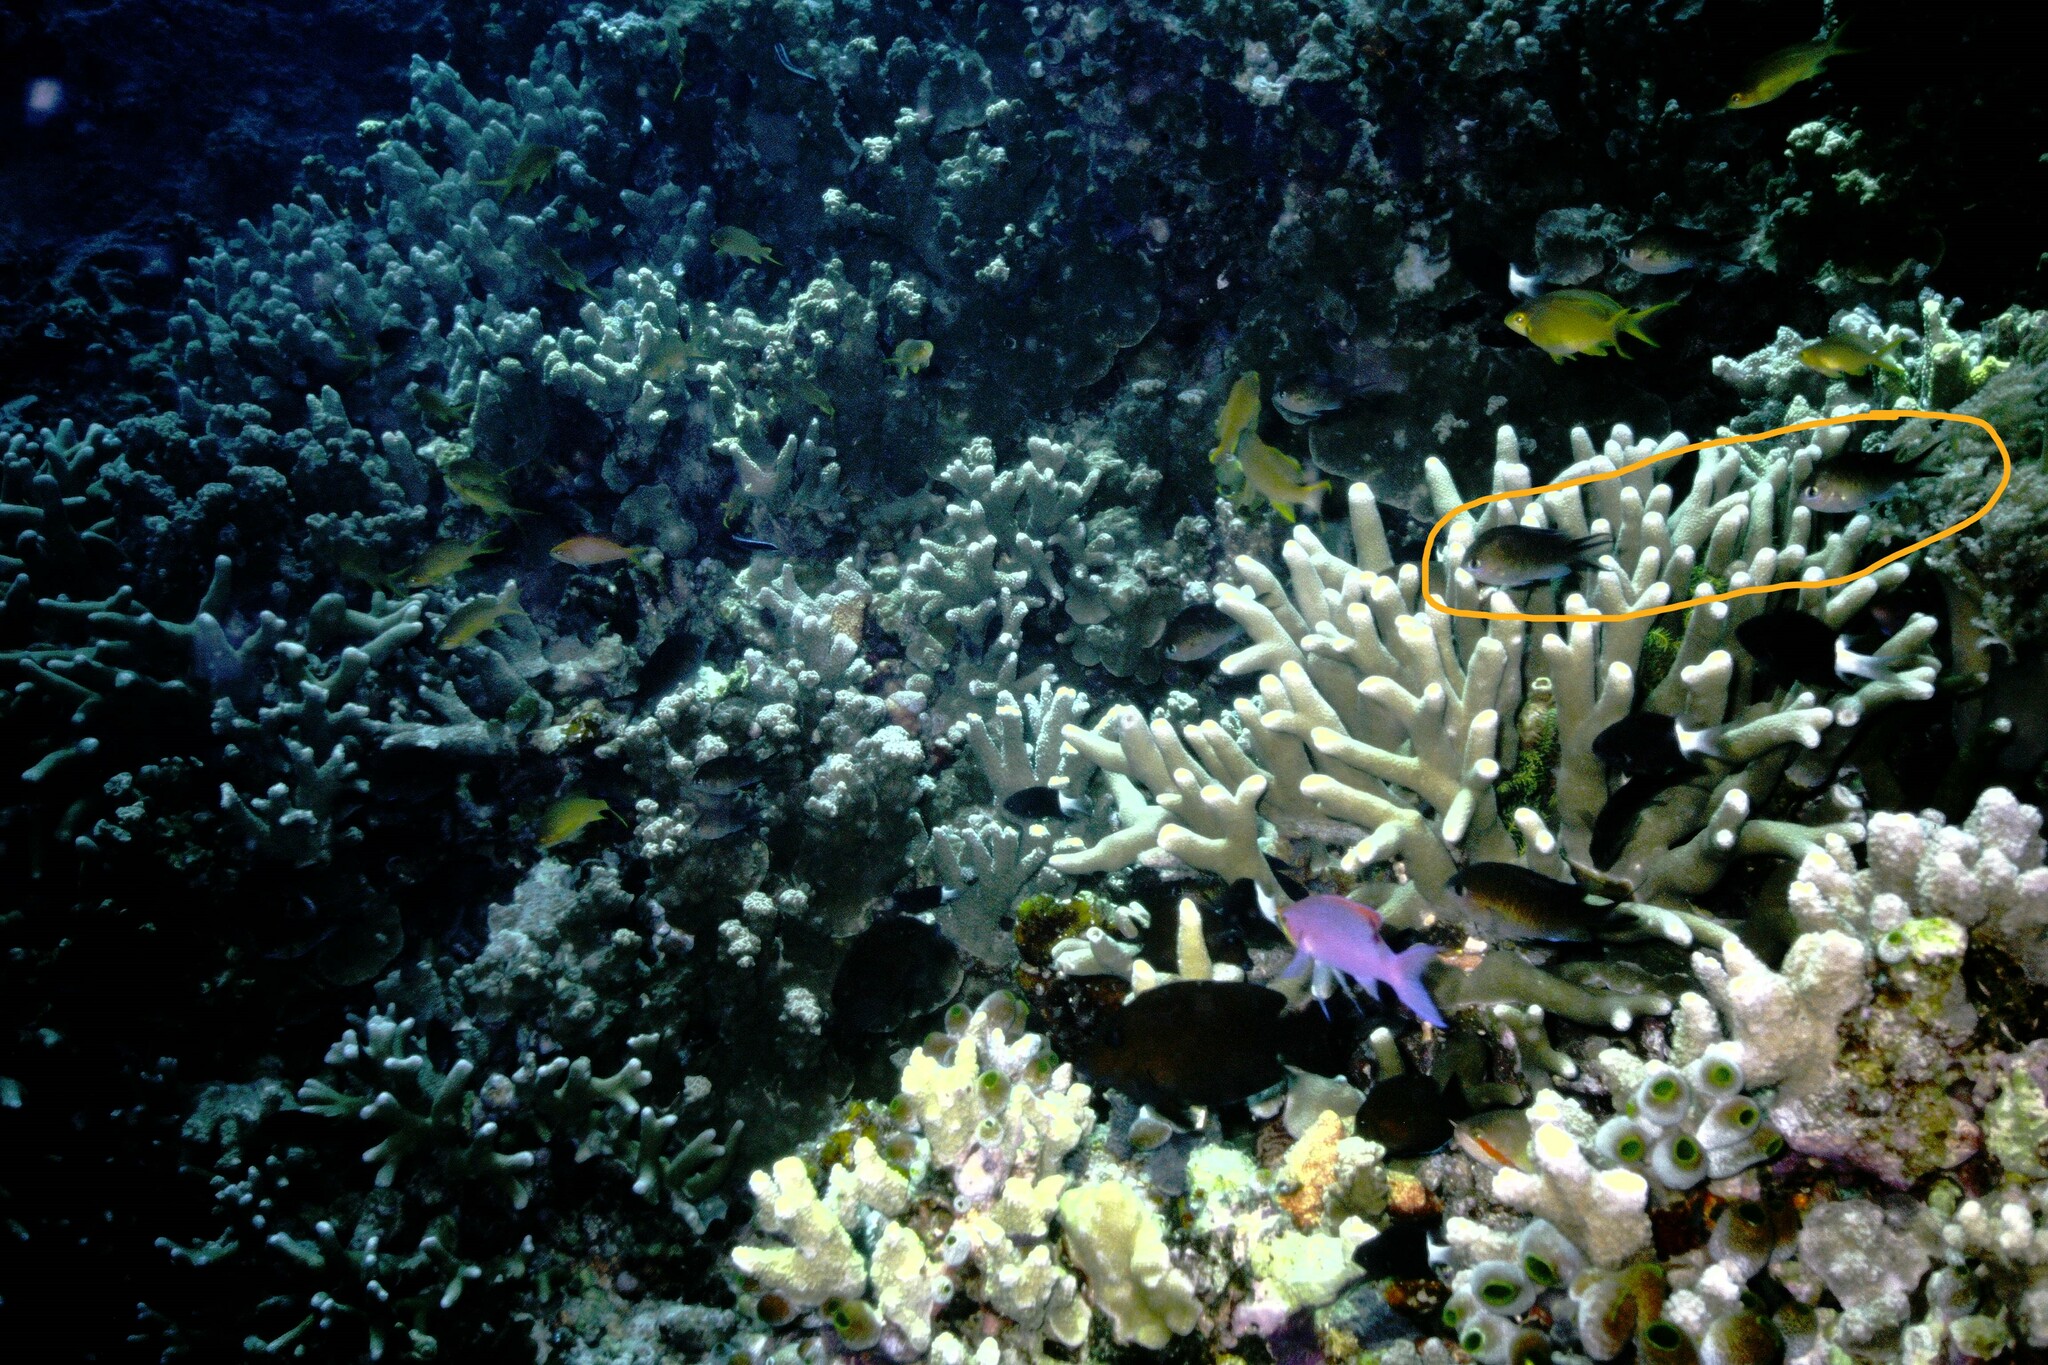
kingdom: Animalia
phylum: Chordata
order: Perciformes
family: Pomacentridae
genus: Chromis
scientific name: Chromis ternatensis
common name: Ternate chromis
